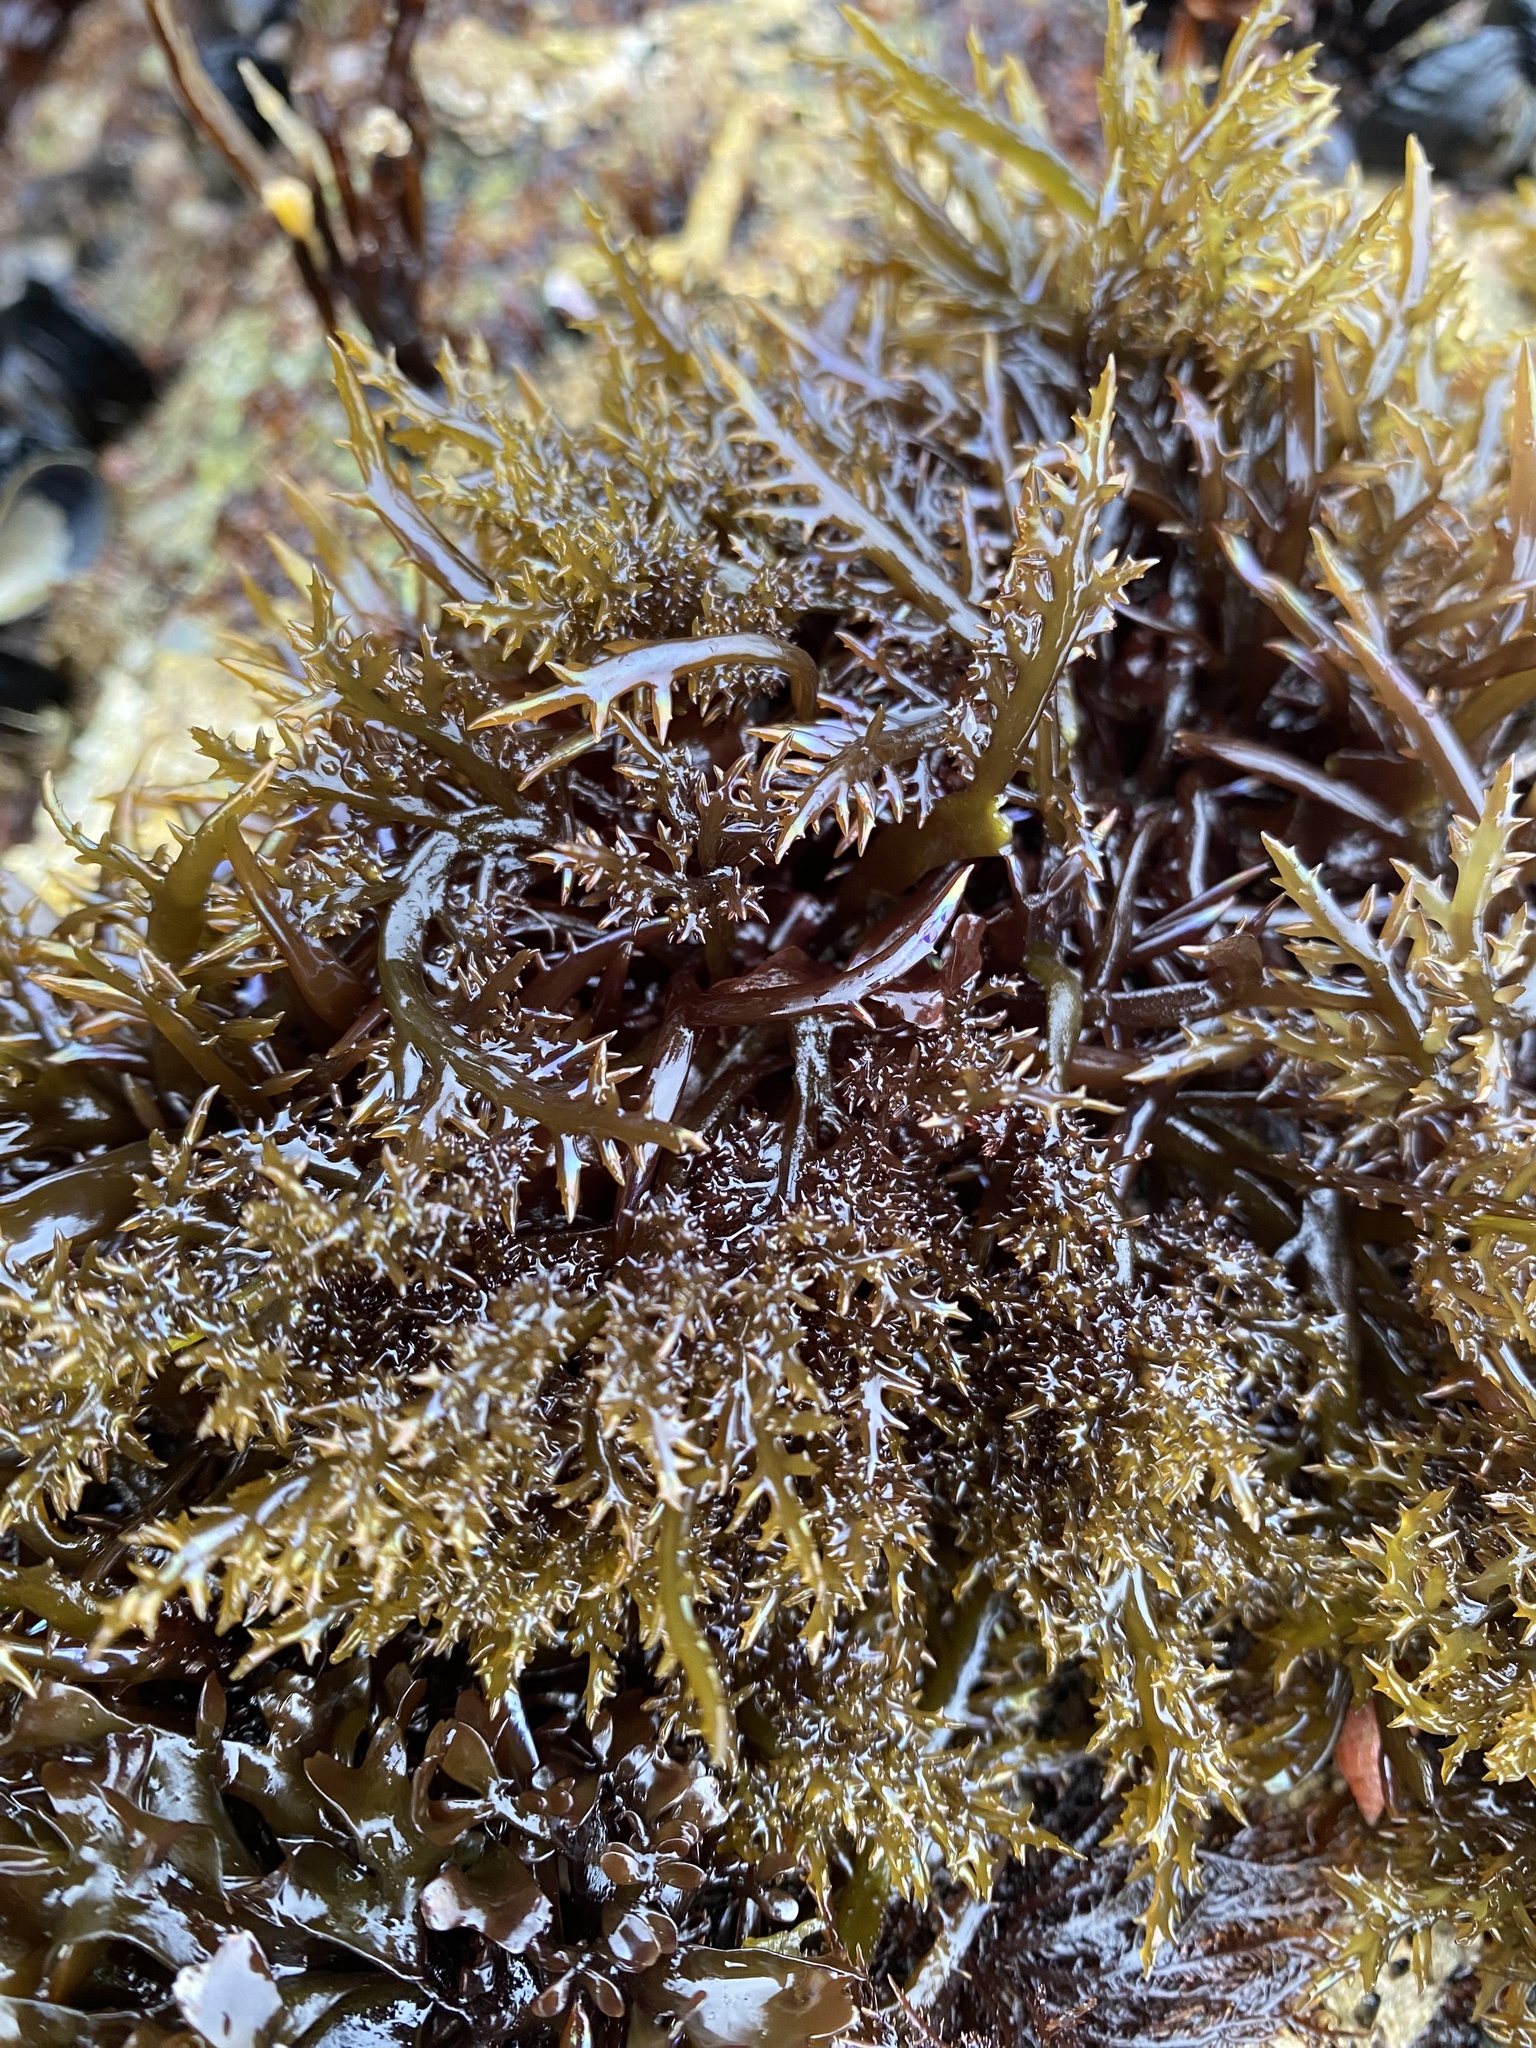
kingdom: Plantae
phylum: Rhodophyta
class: Florideophyceae
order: Gigartinales
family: Gigartinaceae
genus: Chondracanthus
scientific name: Chondracanthus canaliculatus
